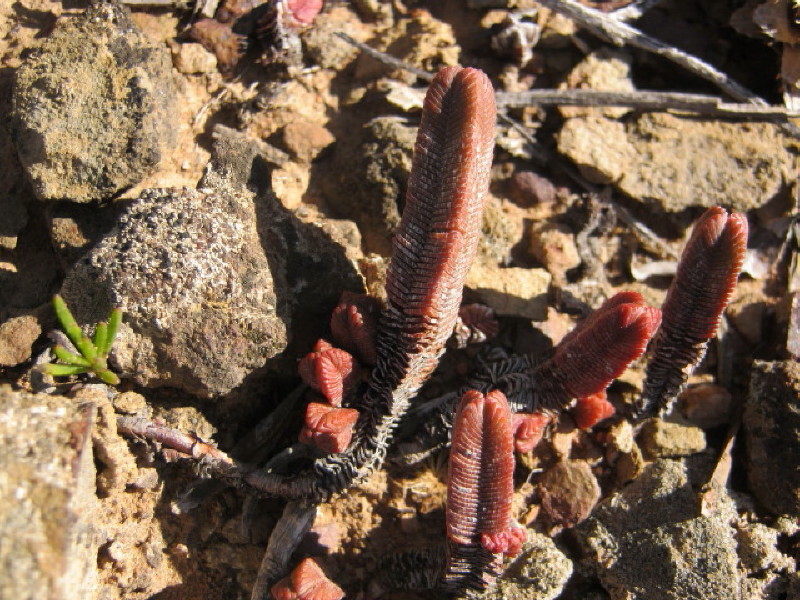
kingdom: Plantae
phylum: Tracheophyta
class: Magnoliopsida
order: Saxifragales
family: Crassulaceae
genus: Crassula
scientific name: Crassula pyramidalis
